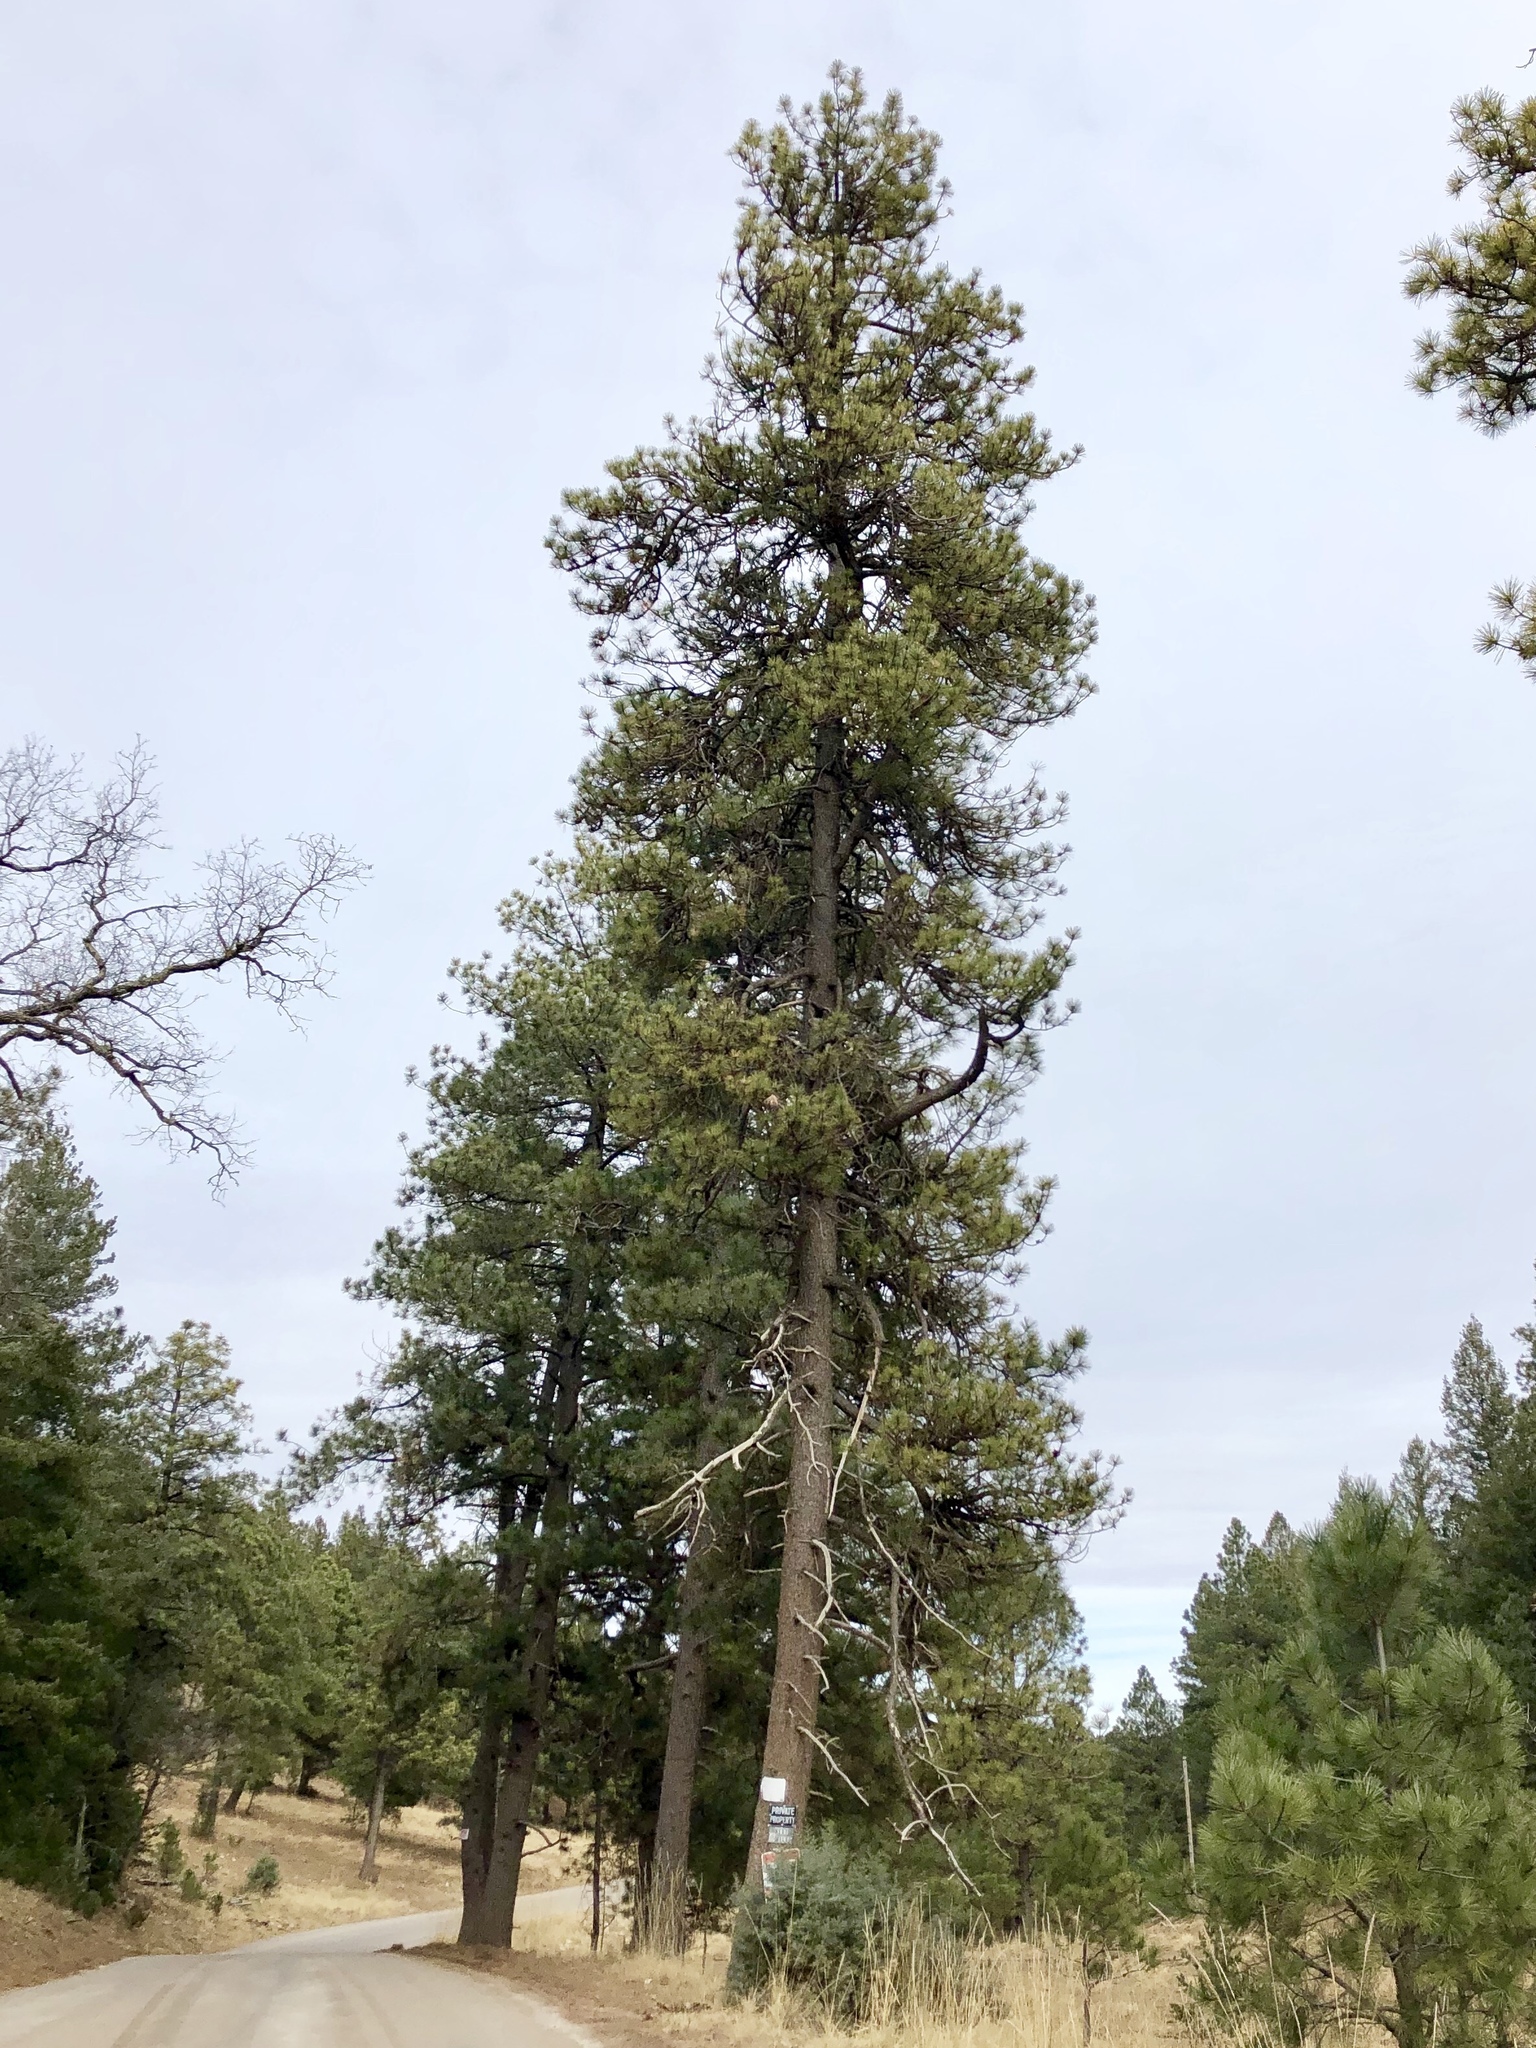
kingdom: Plantae
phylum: Tracheophyta
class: Pinopsida
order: Pinales
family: Pinaceae
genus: Pinus
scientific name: Pinus ponderosa
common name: Western yellow-pine
